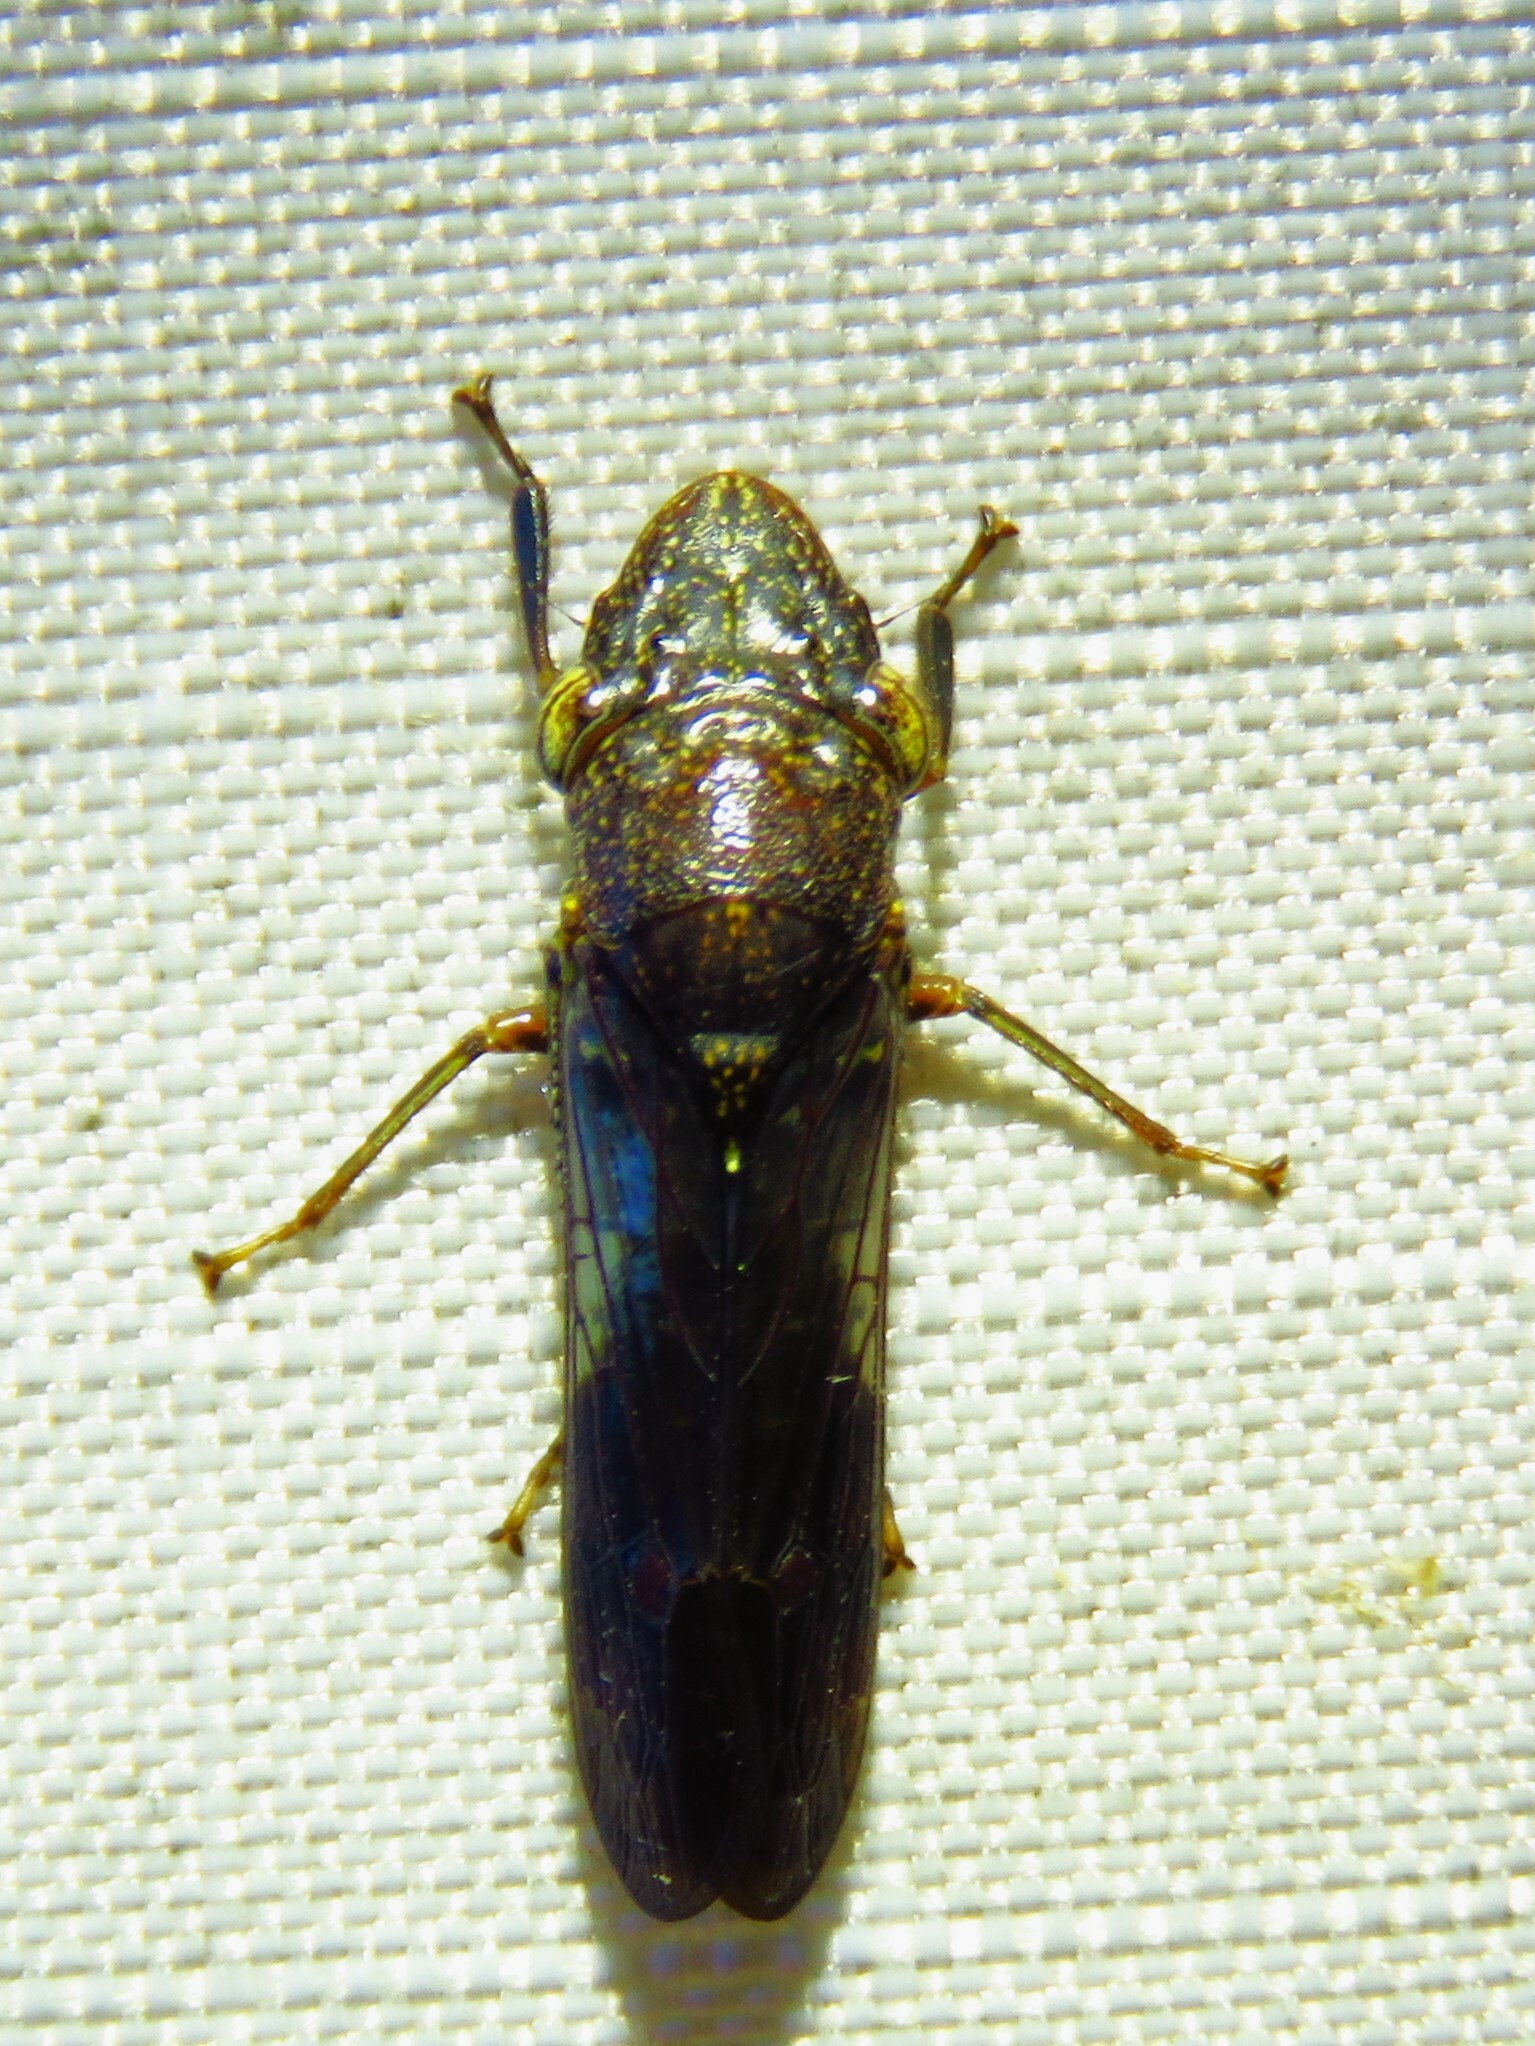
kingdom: Animalia
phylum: Arthropoda
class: Insecta
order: Hemiptera
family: Cicadellidae
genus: Homalodisca
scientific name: Homalodisca vitripennis
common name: Glassy-winged sharpshooter
